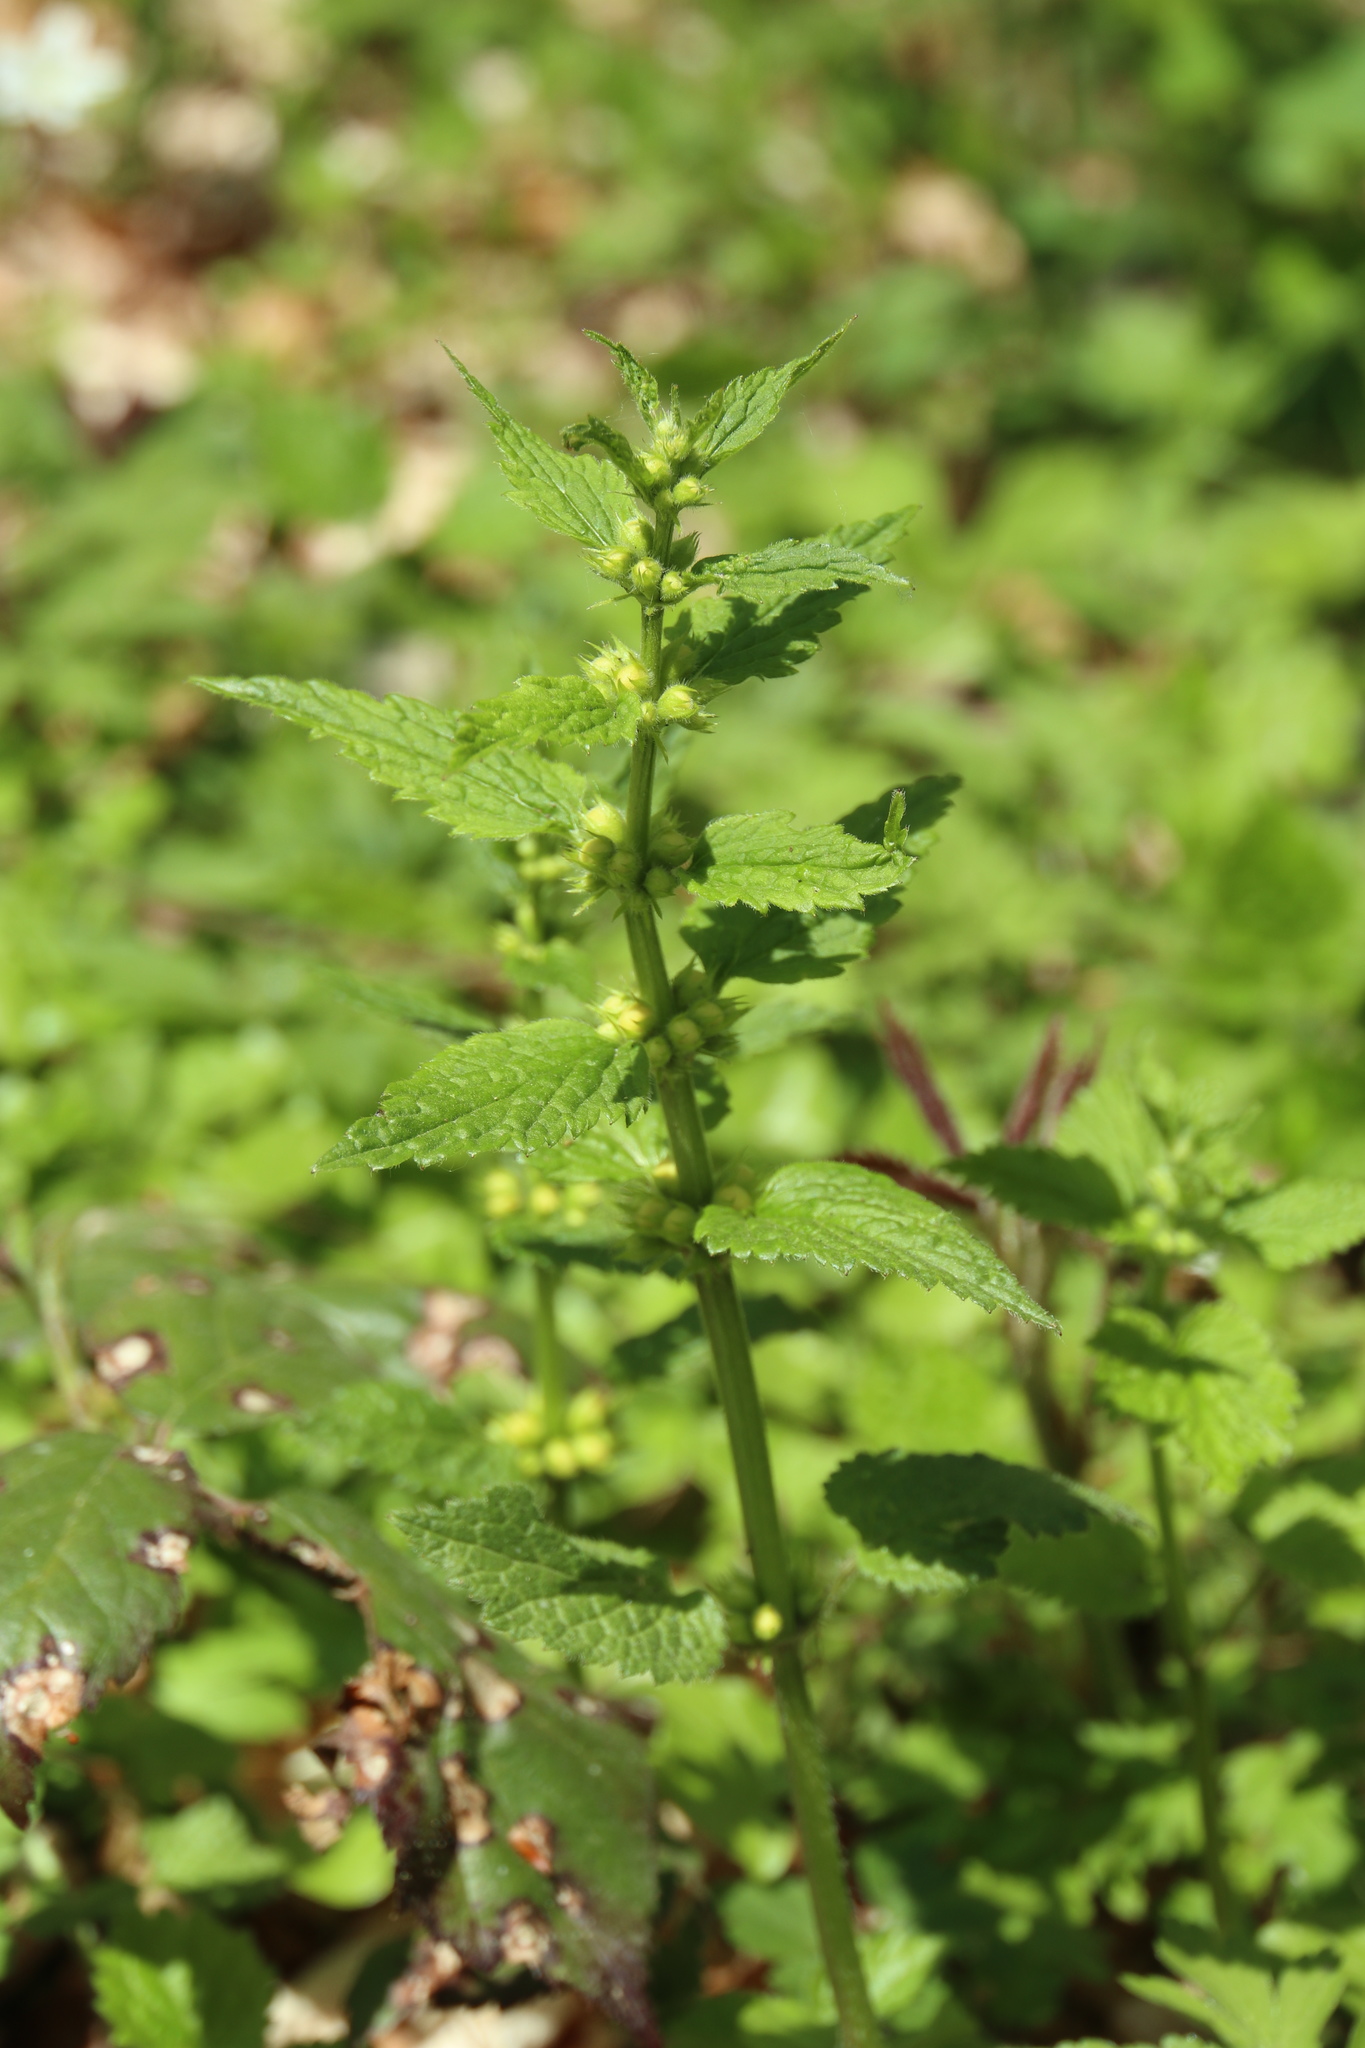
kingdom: Plantae
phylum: Tracheophyta
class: Magnoliopsida
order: Lamiales
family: Lamiaceae
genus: Lamium
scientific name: Lamium galeobdolon
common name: Yellow archangel
